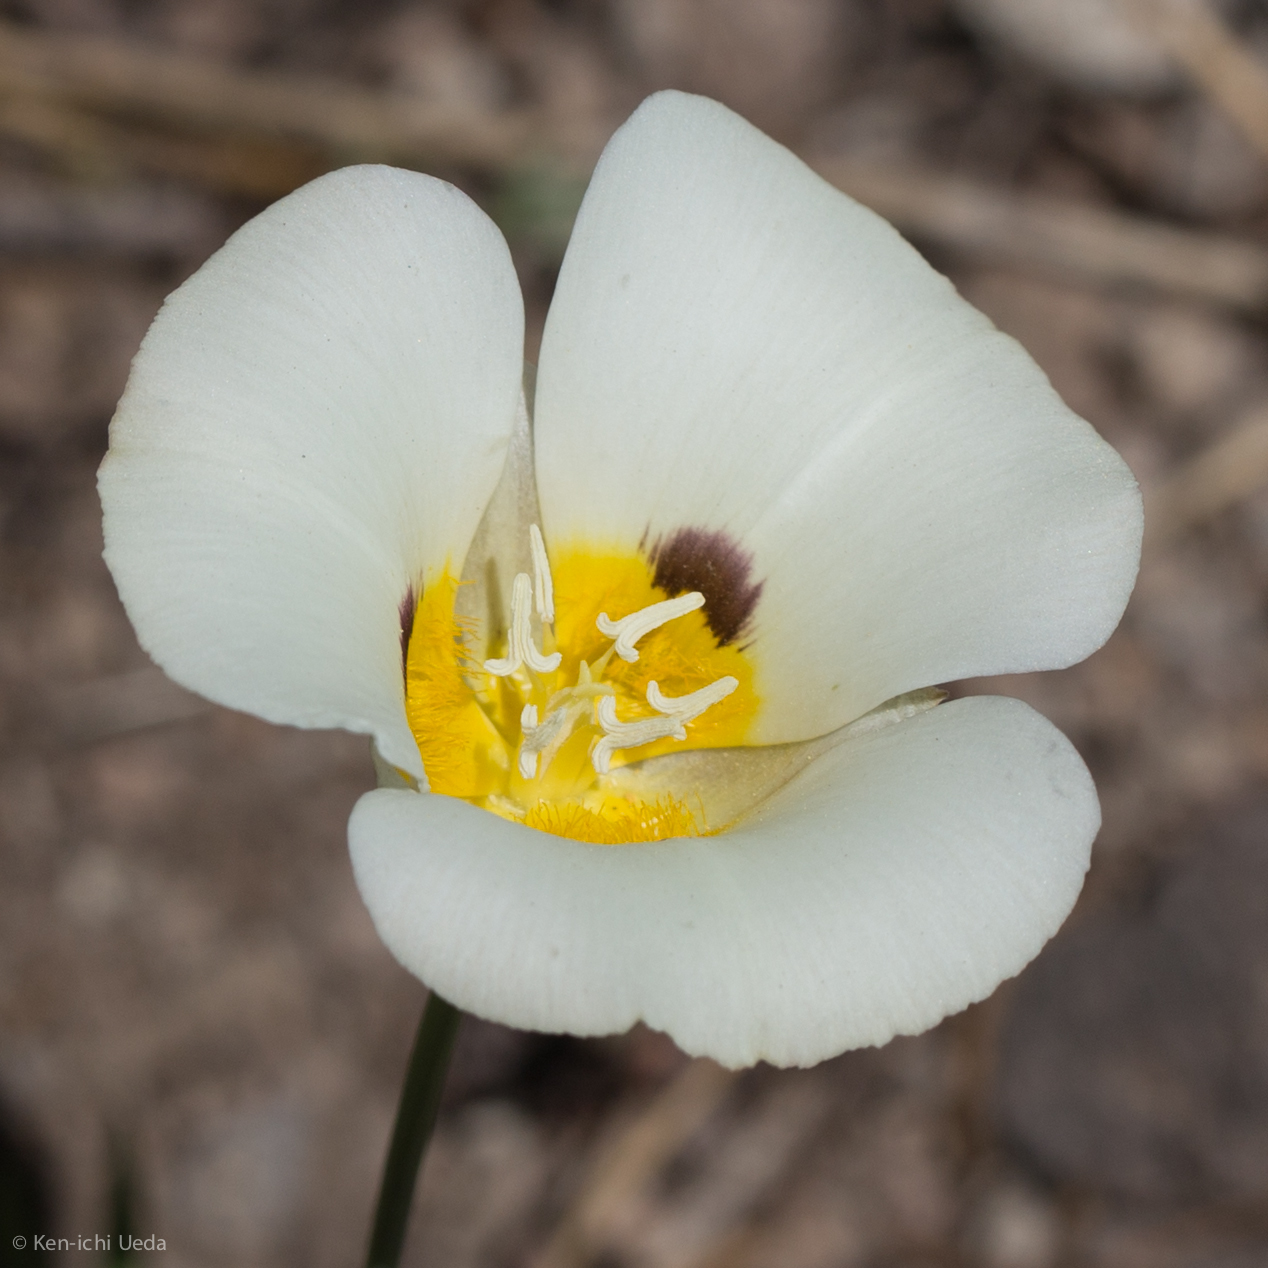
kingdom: Plantae
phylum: Tracheophyta
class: Liliopsida
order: Liliales
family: Liliaceae
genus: Calochortus
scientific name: Calochortus leichtlinii
